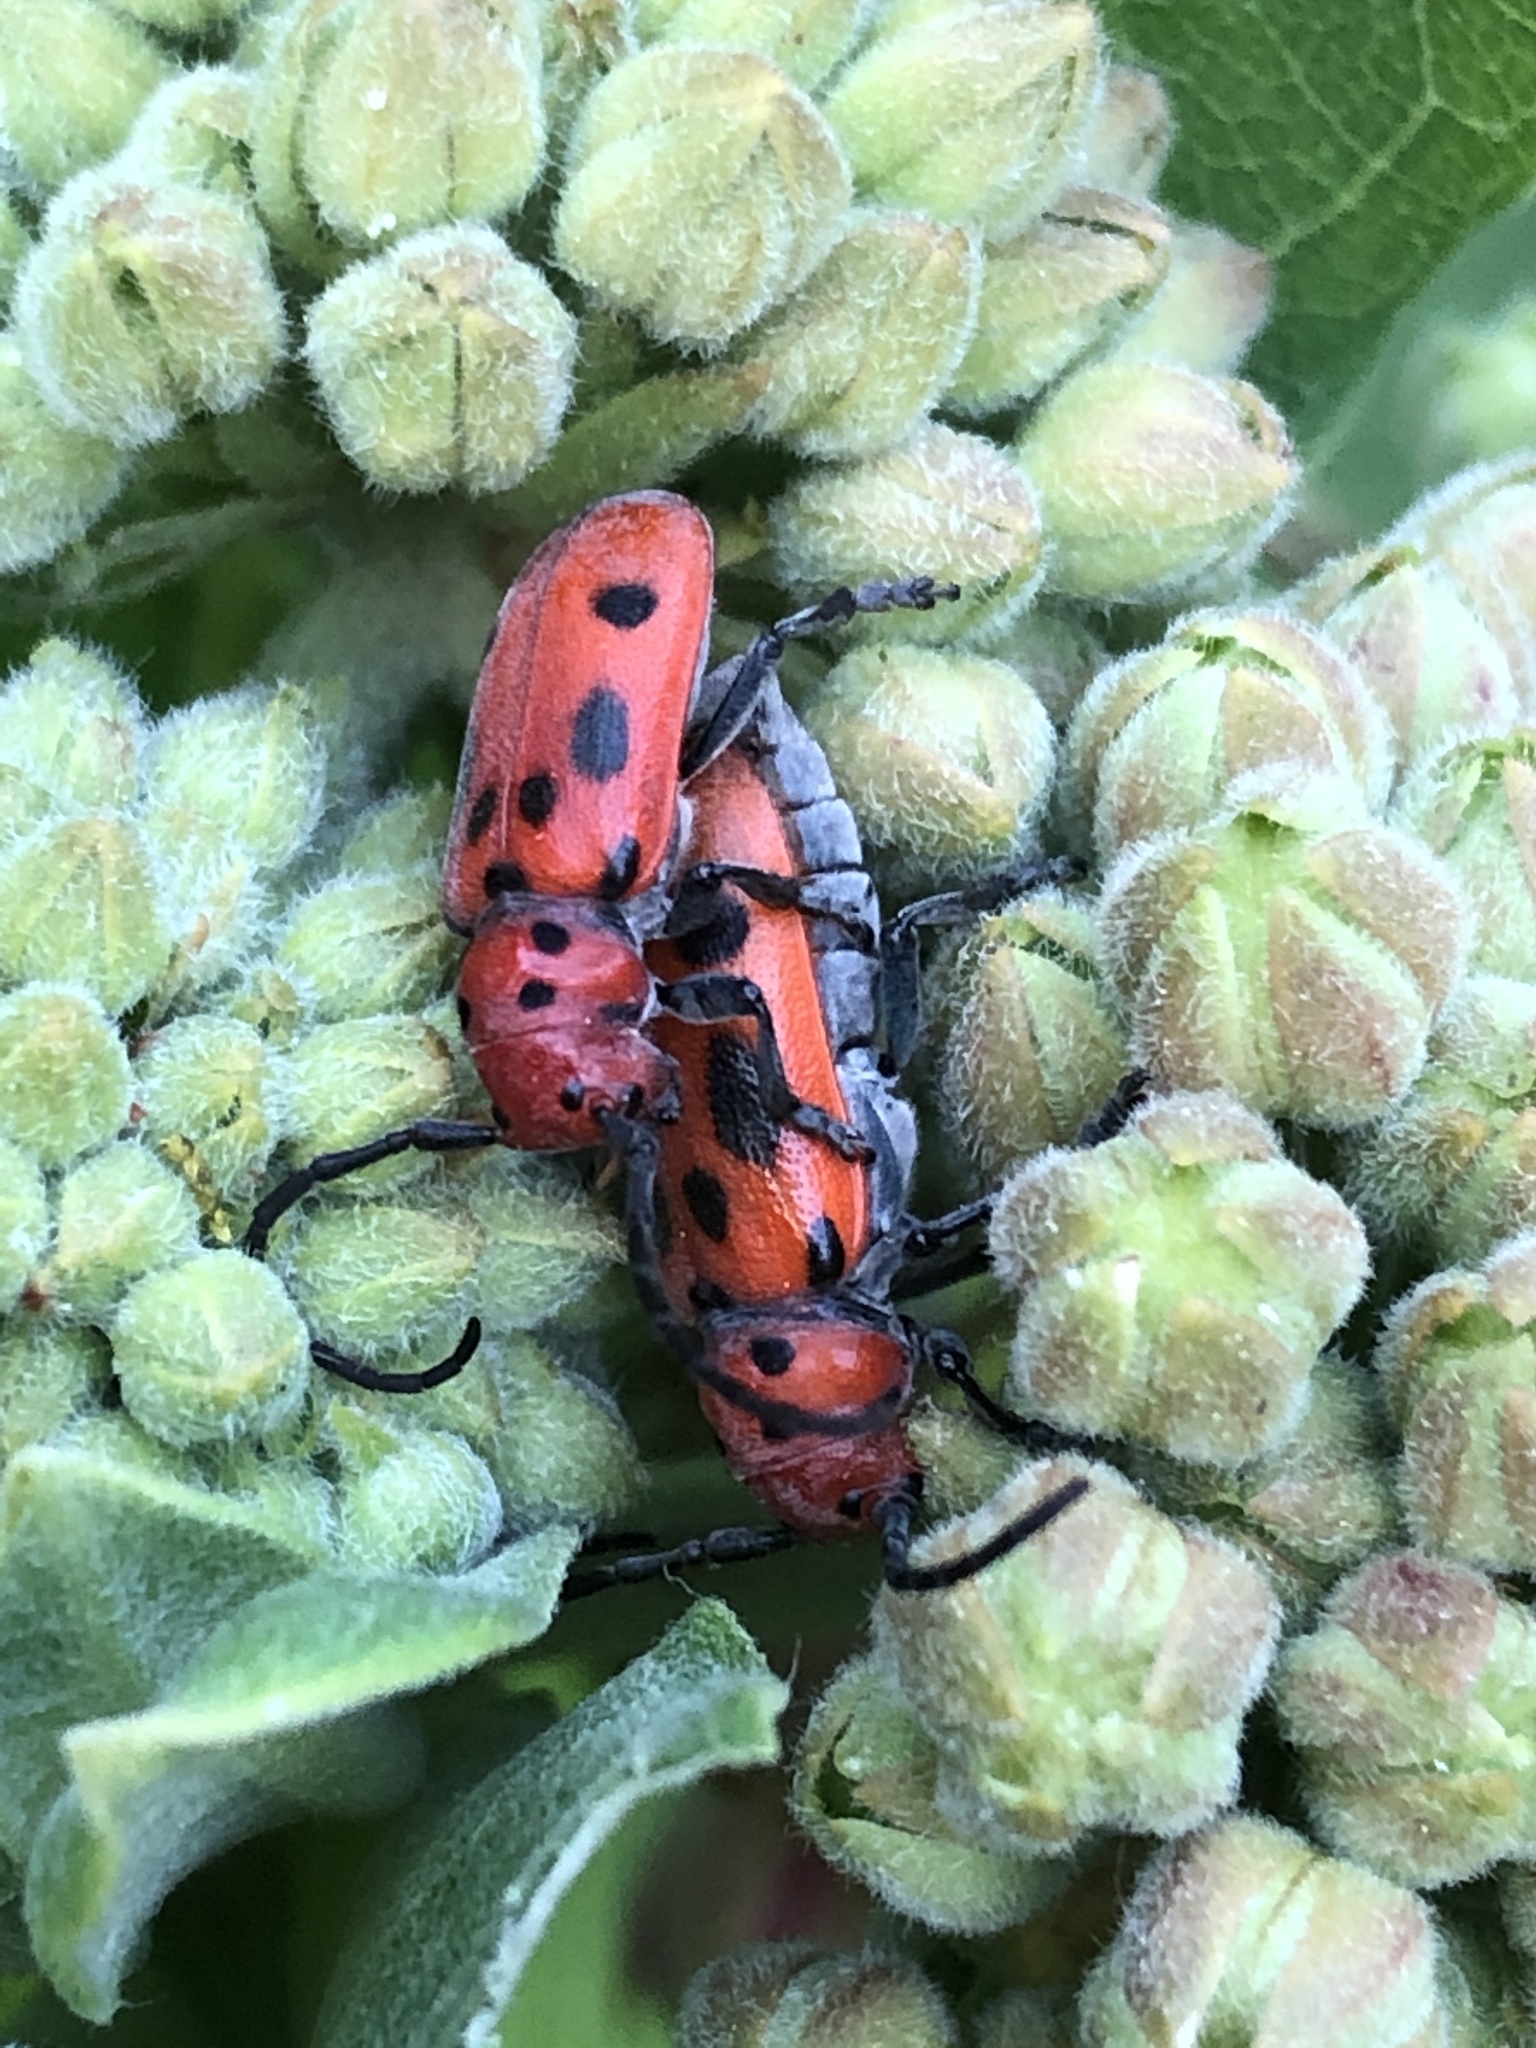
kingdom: Animalia
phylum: Arthropoda
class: Insecta
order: Coleoptera
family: Cerambycidae
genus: Tetraopes
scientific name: Tetraopes tetrophthalmus
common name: Red milkweed beetle
